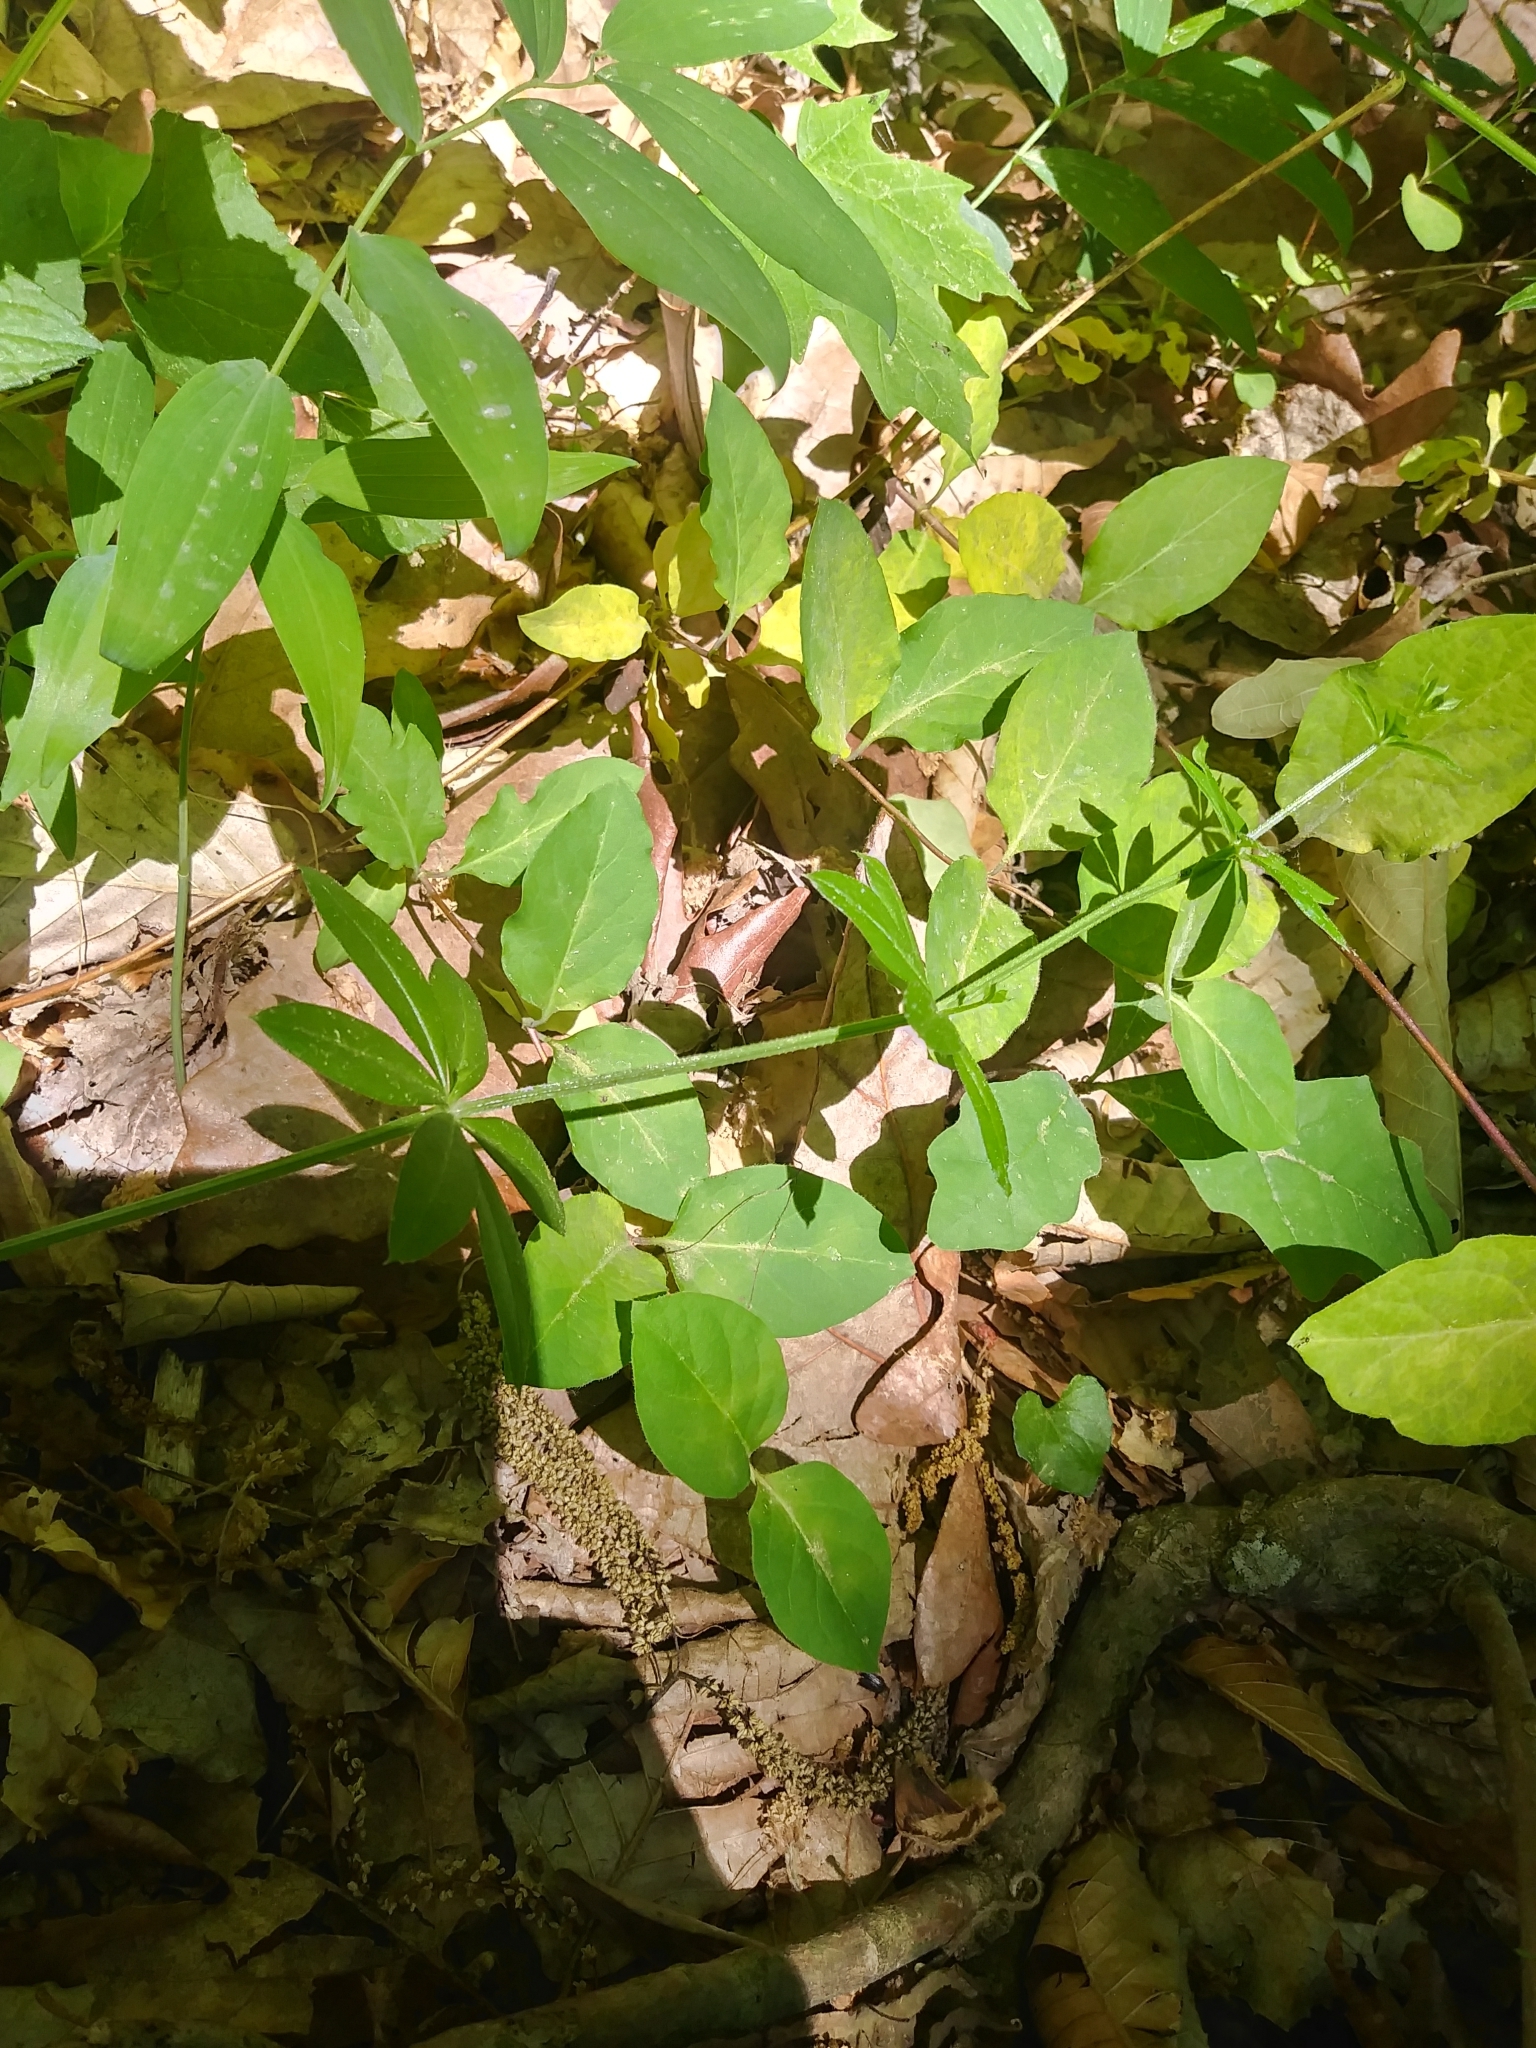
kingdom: Plantae
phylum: Tracheophyta
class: Magnoliopsida
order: Gentianales
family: Rubiaceae
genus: Galium
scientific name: Galium triflorum
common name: Fragrant bedstraw
